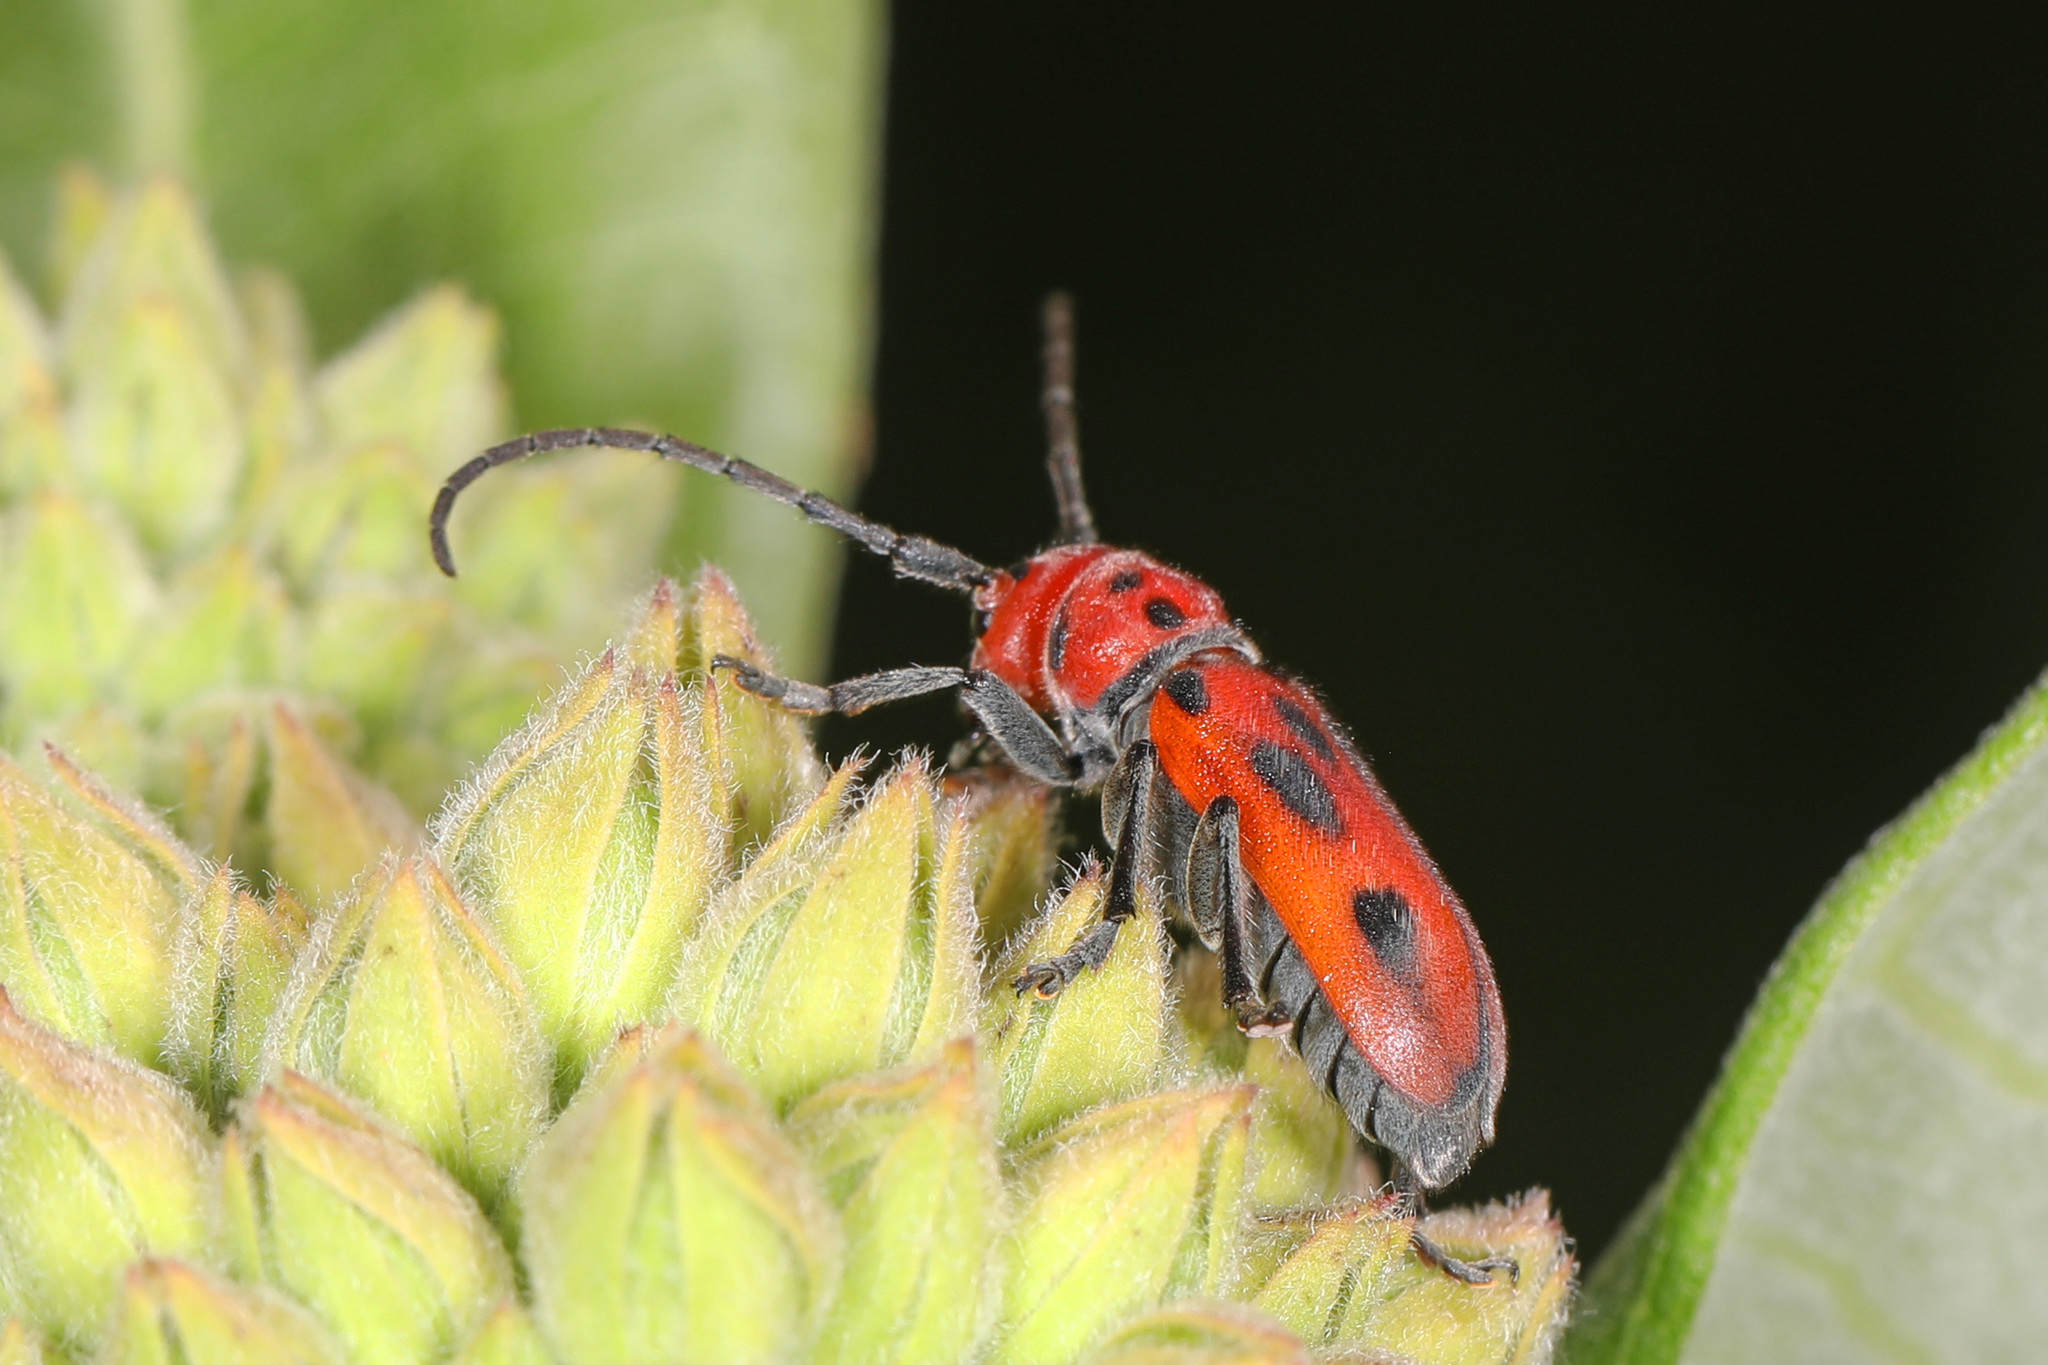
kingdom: Animalia
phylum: Arthropoda
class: Insecta
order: Coleoptera
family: Cerambycidae
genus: Tetraopes
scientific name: Tetraopes tetrophthalmus
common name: Red milkweed beetle
